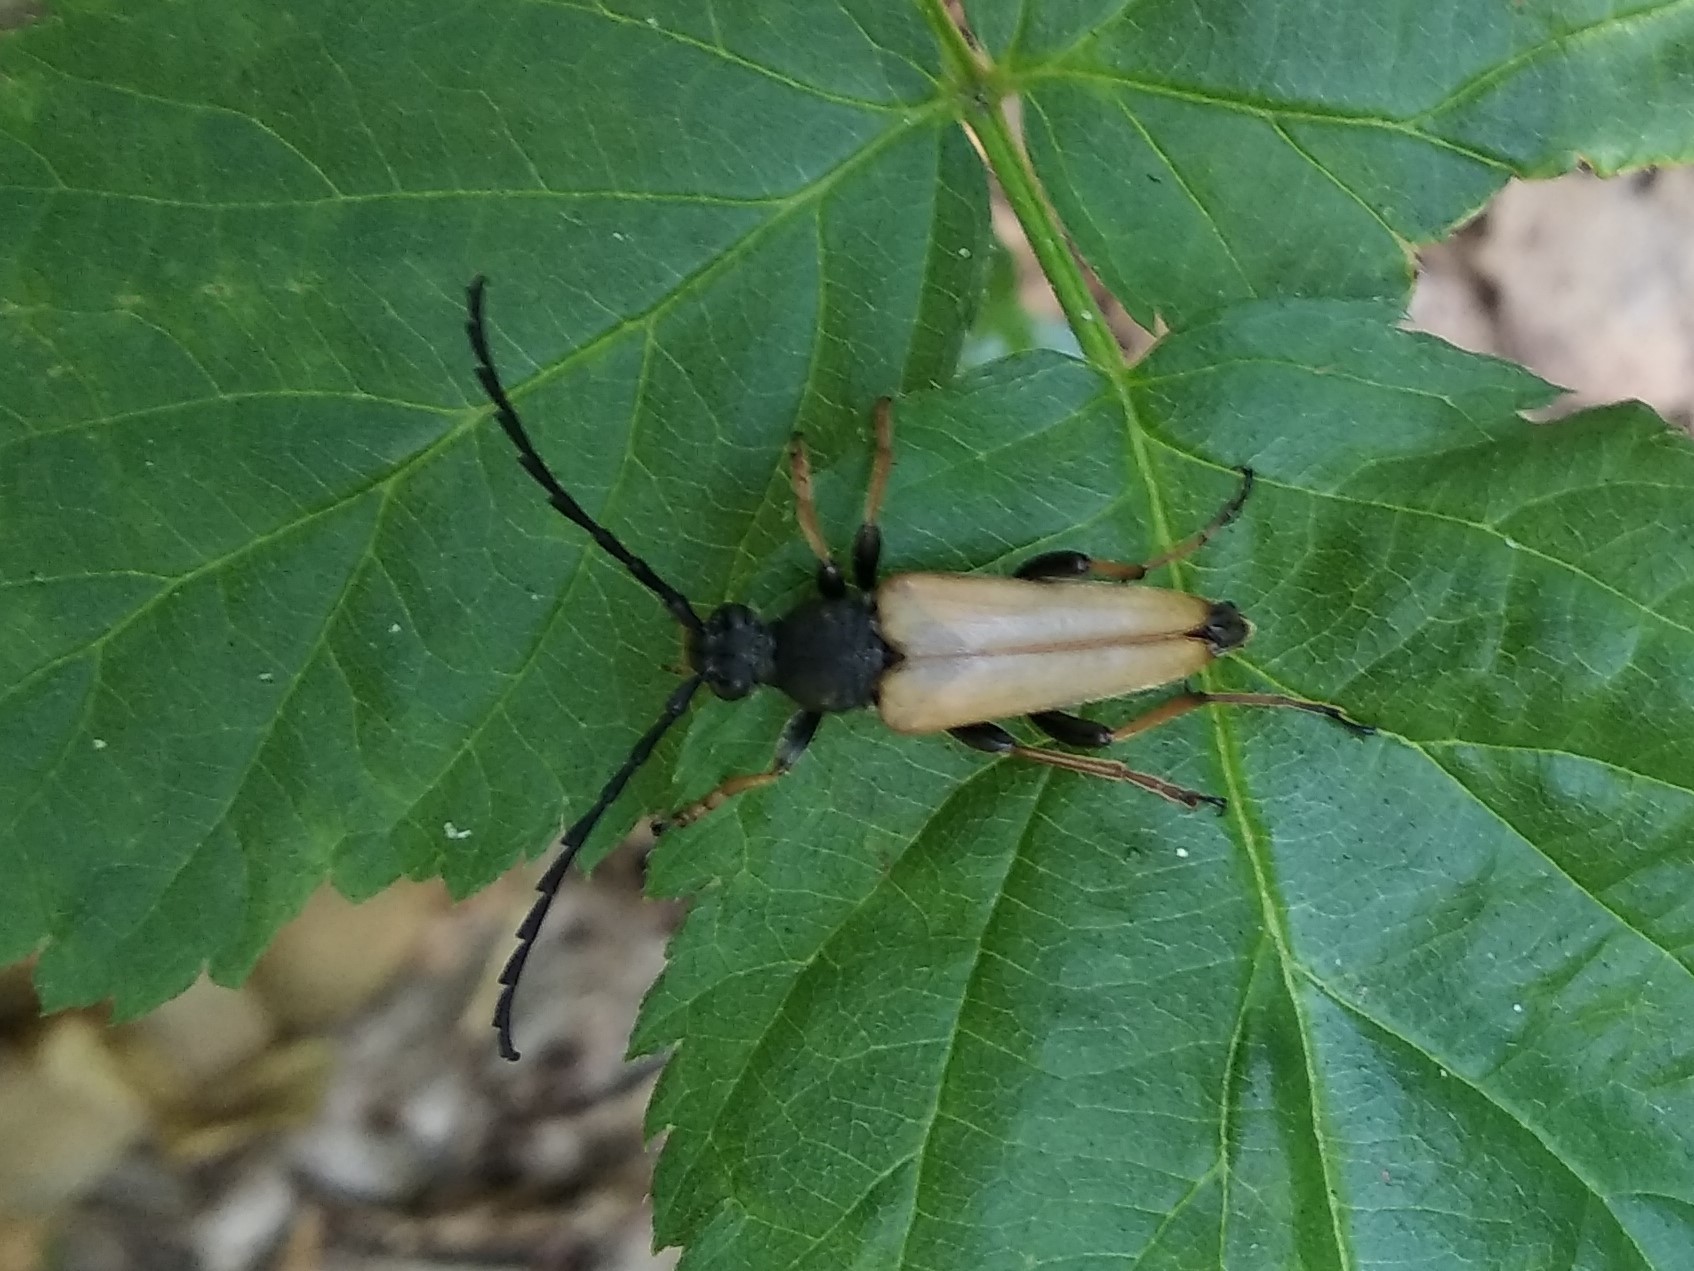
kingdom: Animalia
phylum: Arthropoda
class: Insecta
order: Coleoptera
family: Cerambycidae
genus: Stictoleptura
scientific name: Stictoleptura rubra
